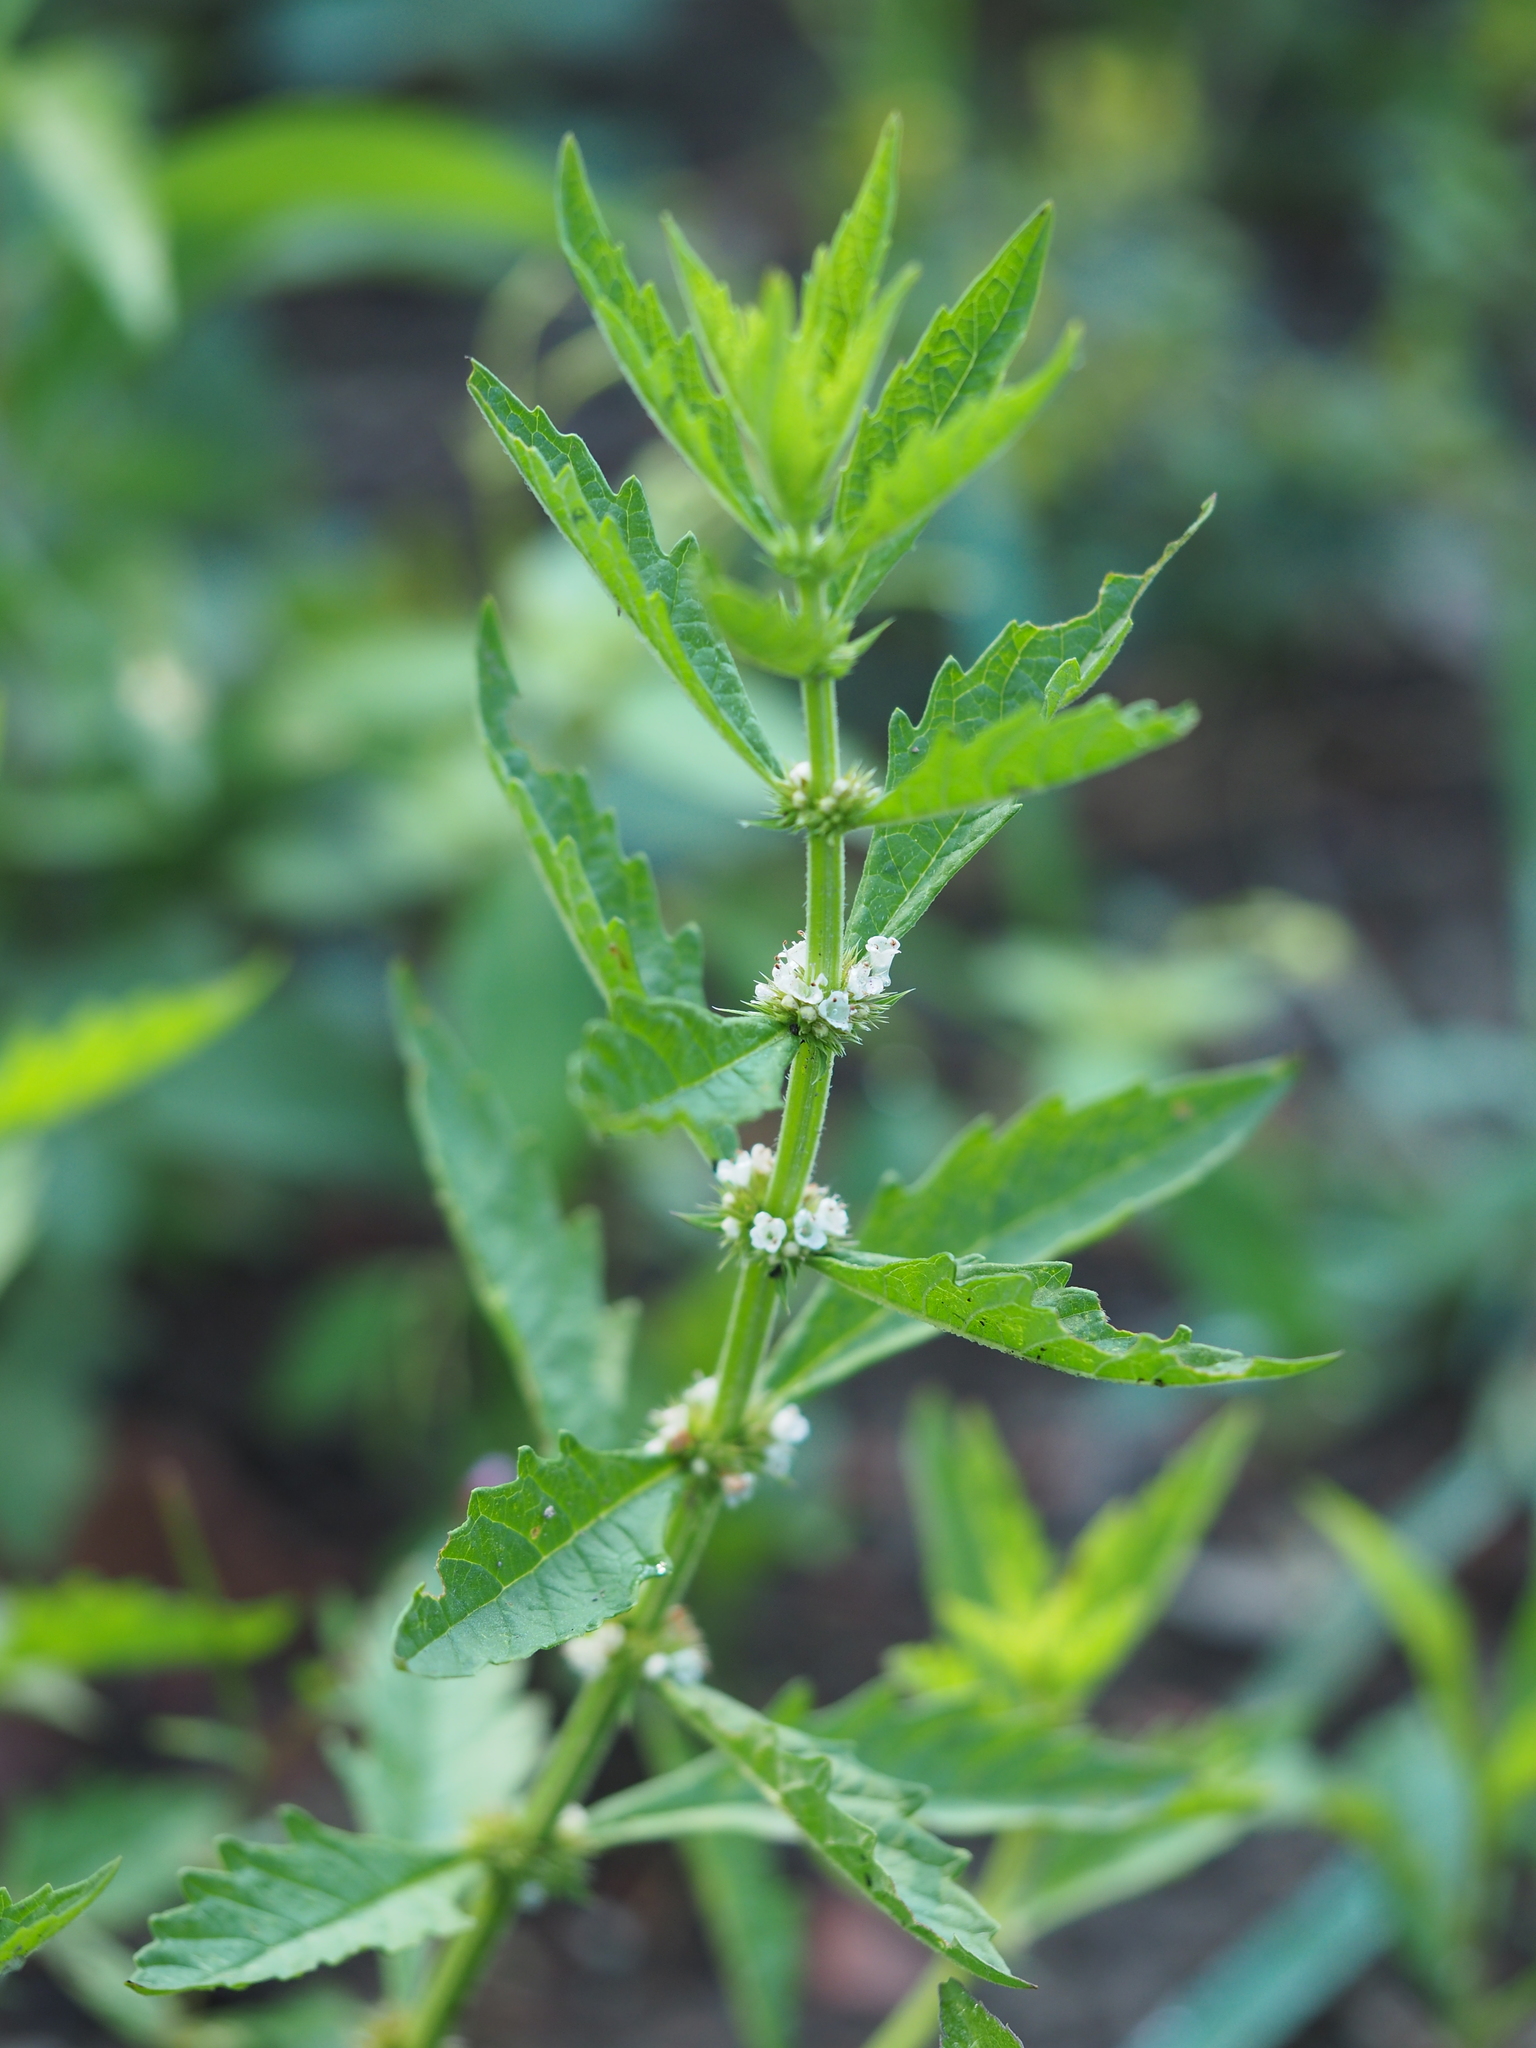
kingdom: Plantae
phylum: Tracheophyta
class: Magnoliopsida
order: Lamiales
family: Lamiaceae
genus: Lycopus
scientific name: Lycopus europaeus
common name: European bugleweed
